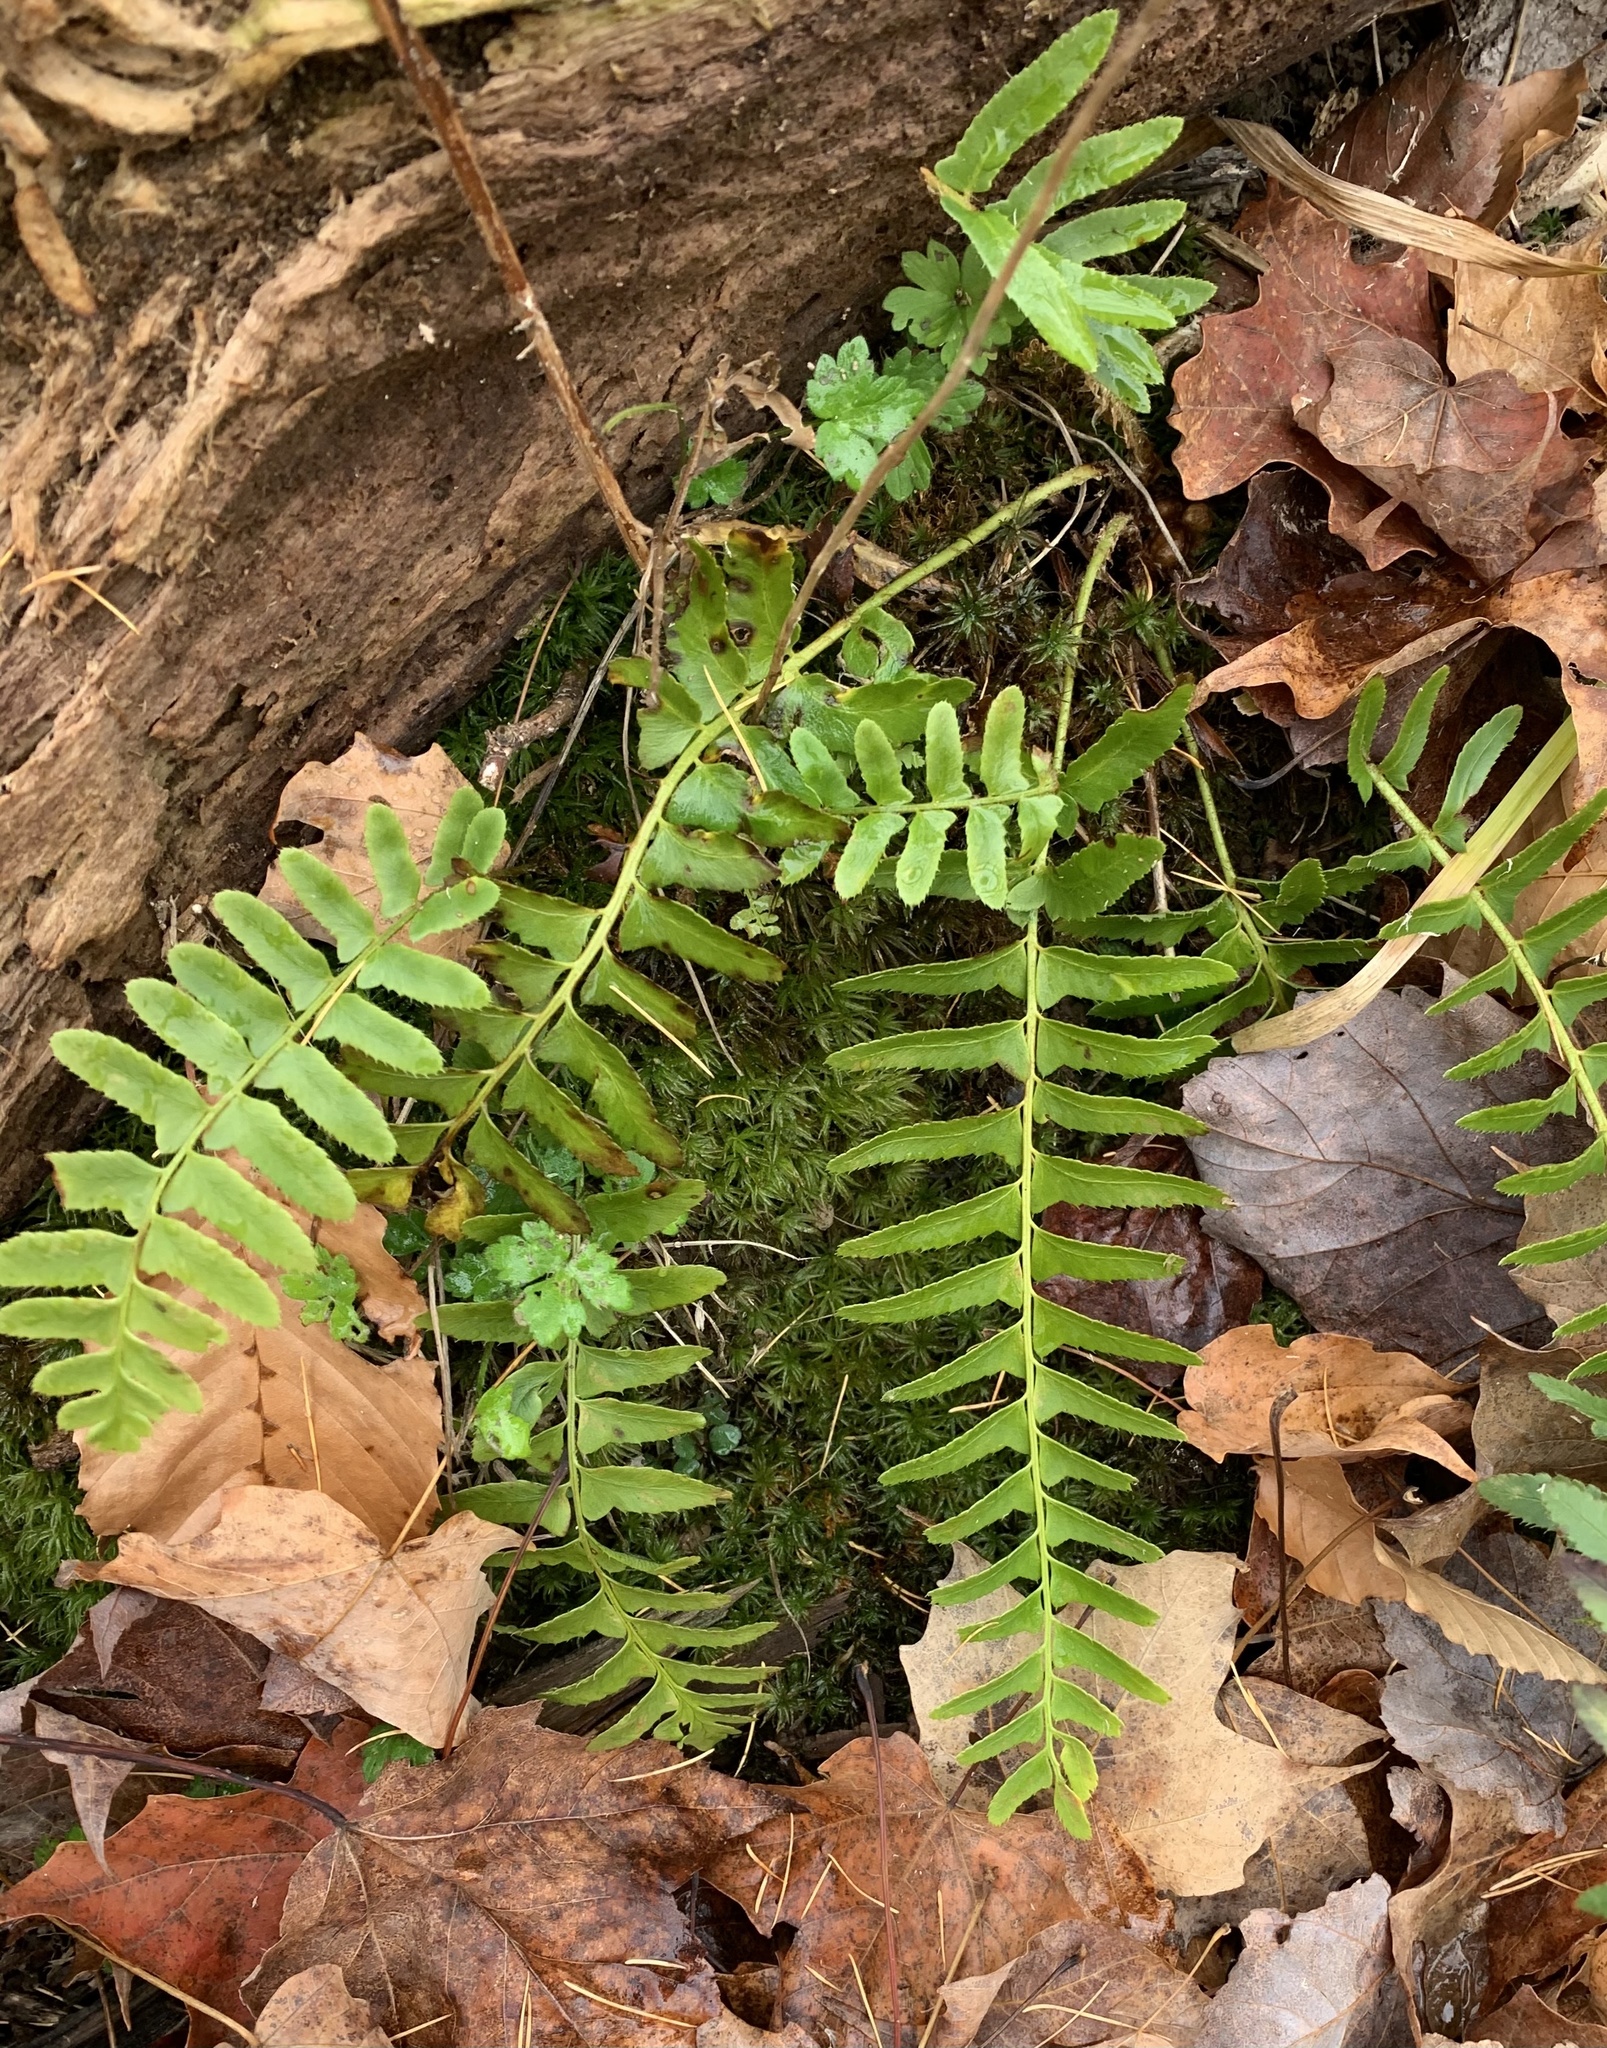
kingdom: Plantae
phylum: Tracheophyta
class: Polypodiopsida
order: Polypodiales
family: Dryopteridaceae
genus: Polystichum
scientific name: Polystichum acrostichoides
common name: Christmas fern
